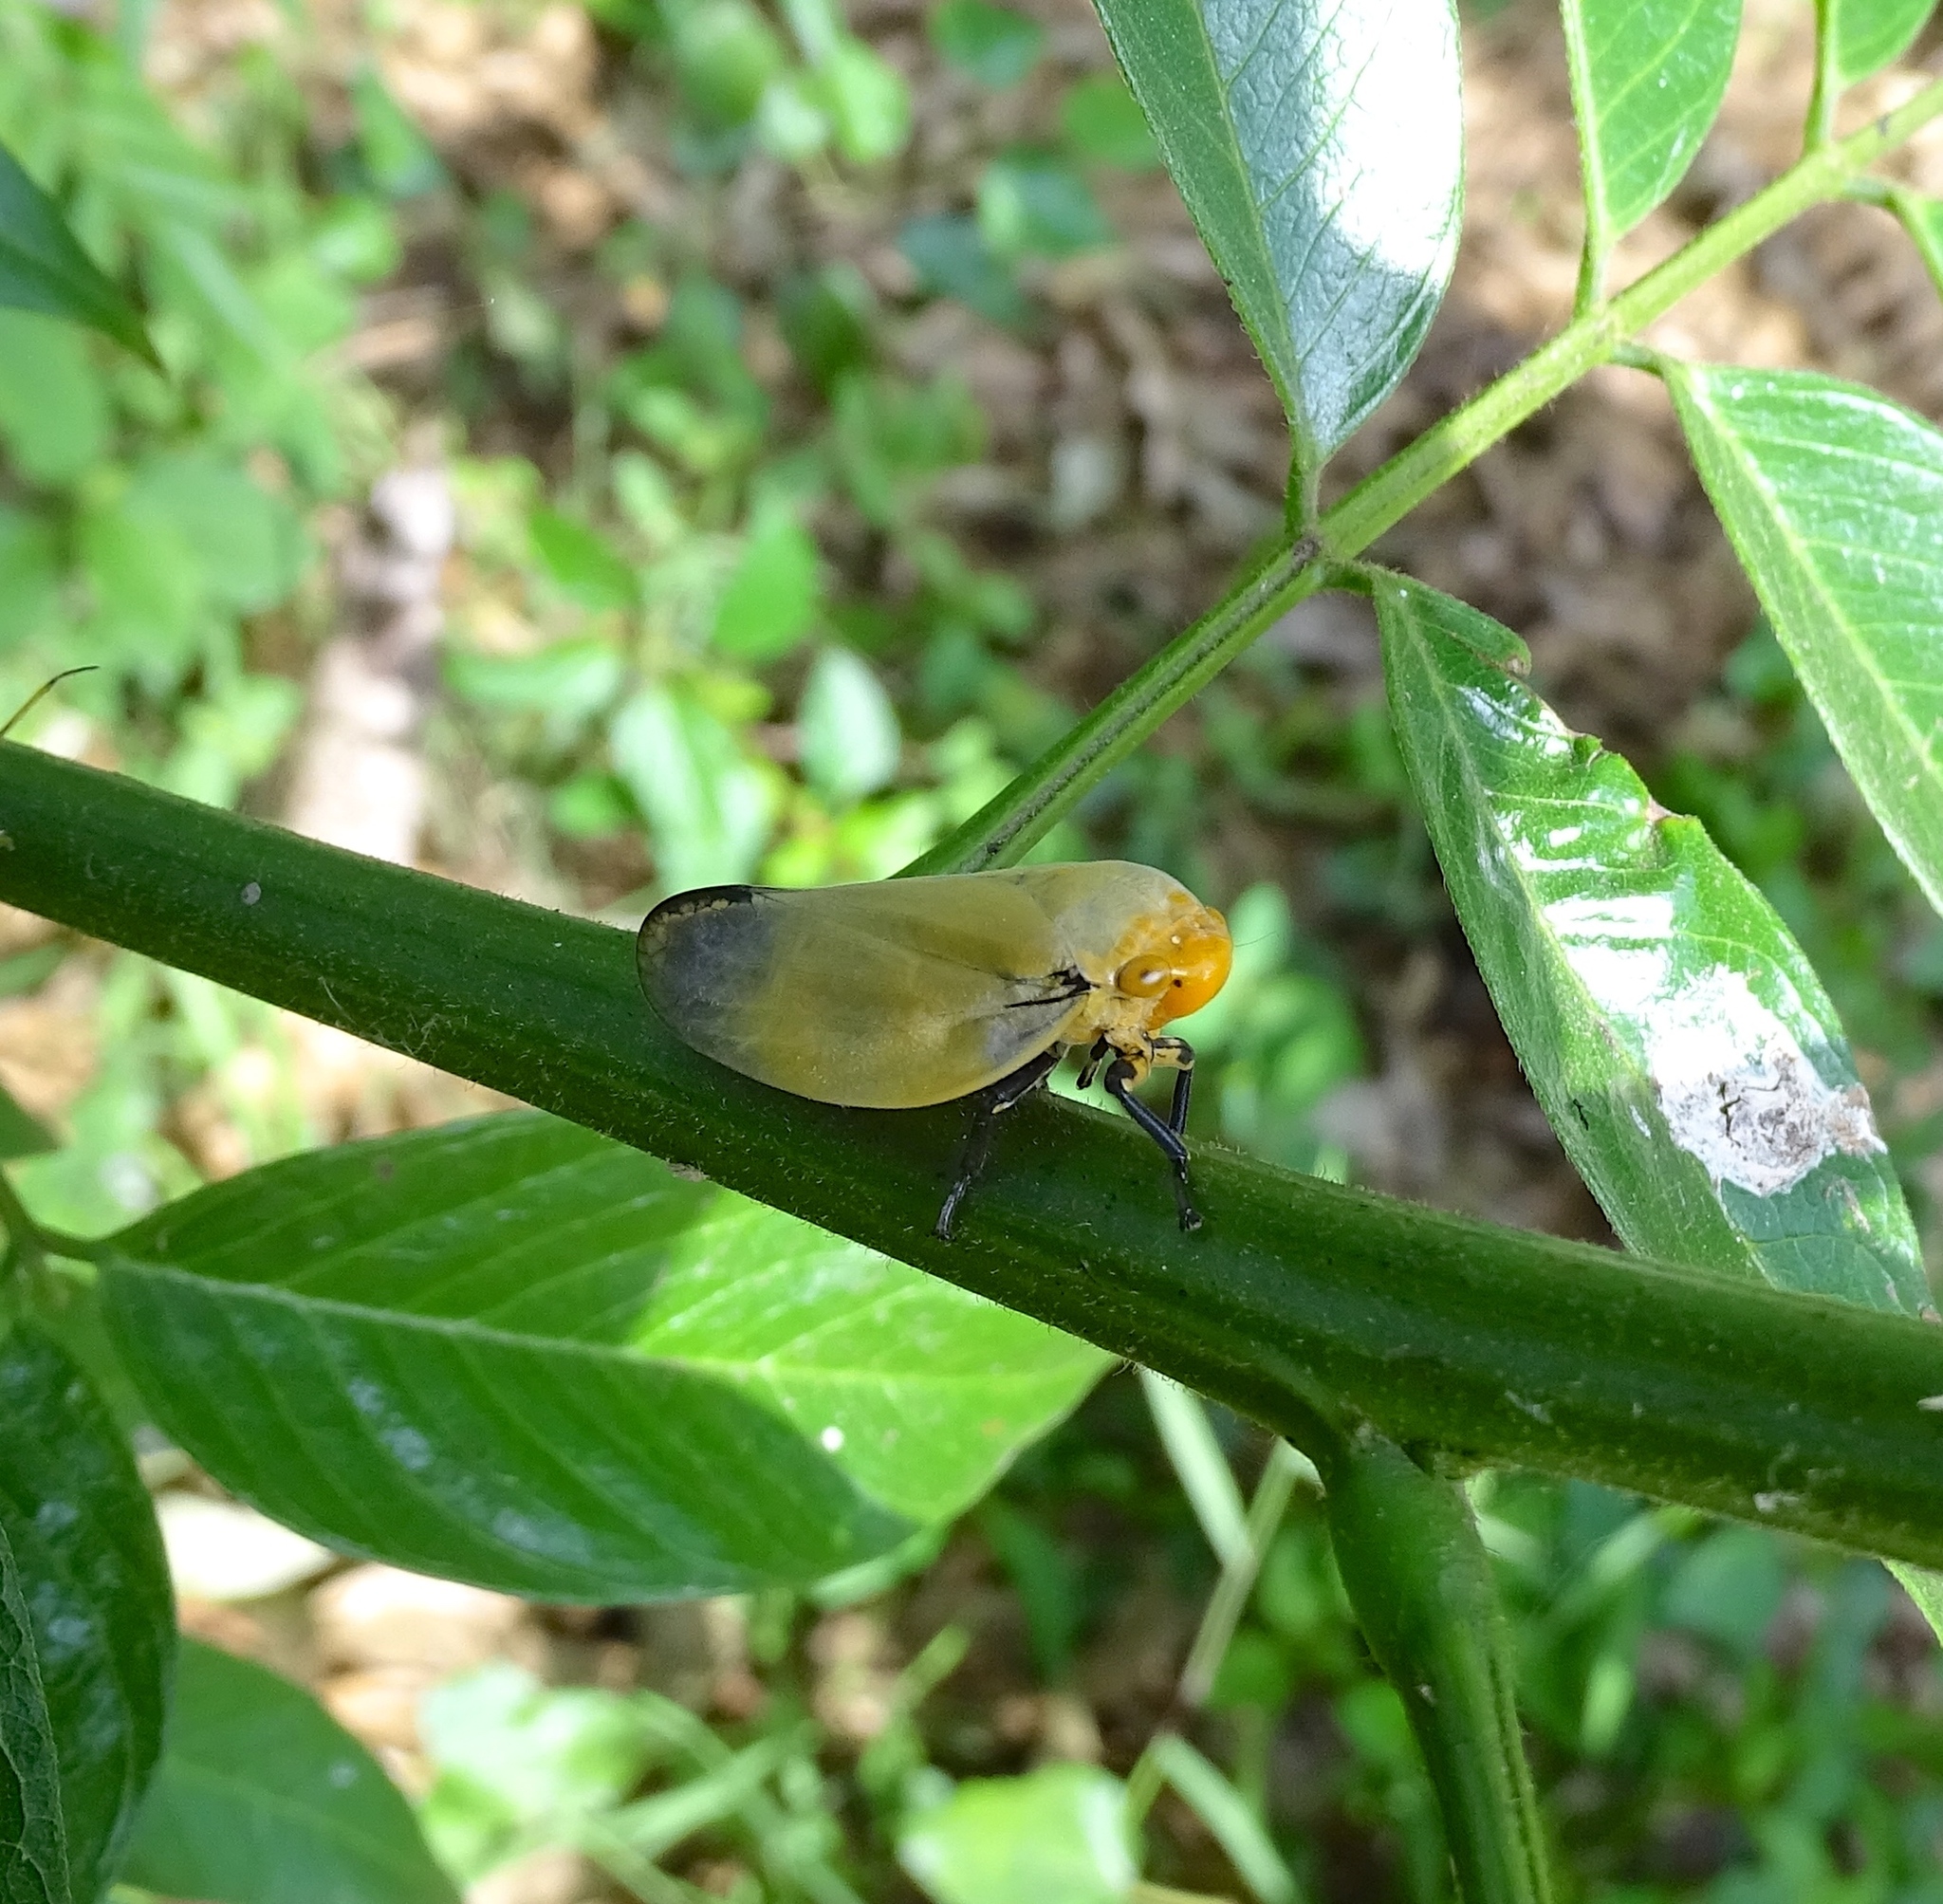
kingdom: Animalia
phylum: Arthropoda
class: Insecta
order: Hemiptera
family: Aphrophoridae
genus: Ptyelus
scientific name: Ptyelus goudoti
